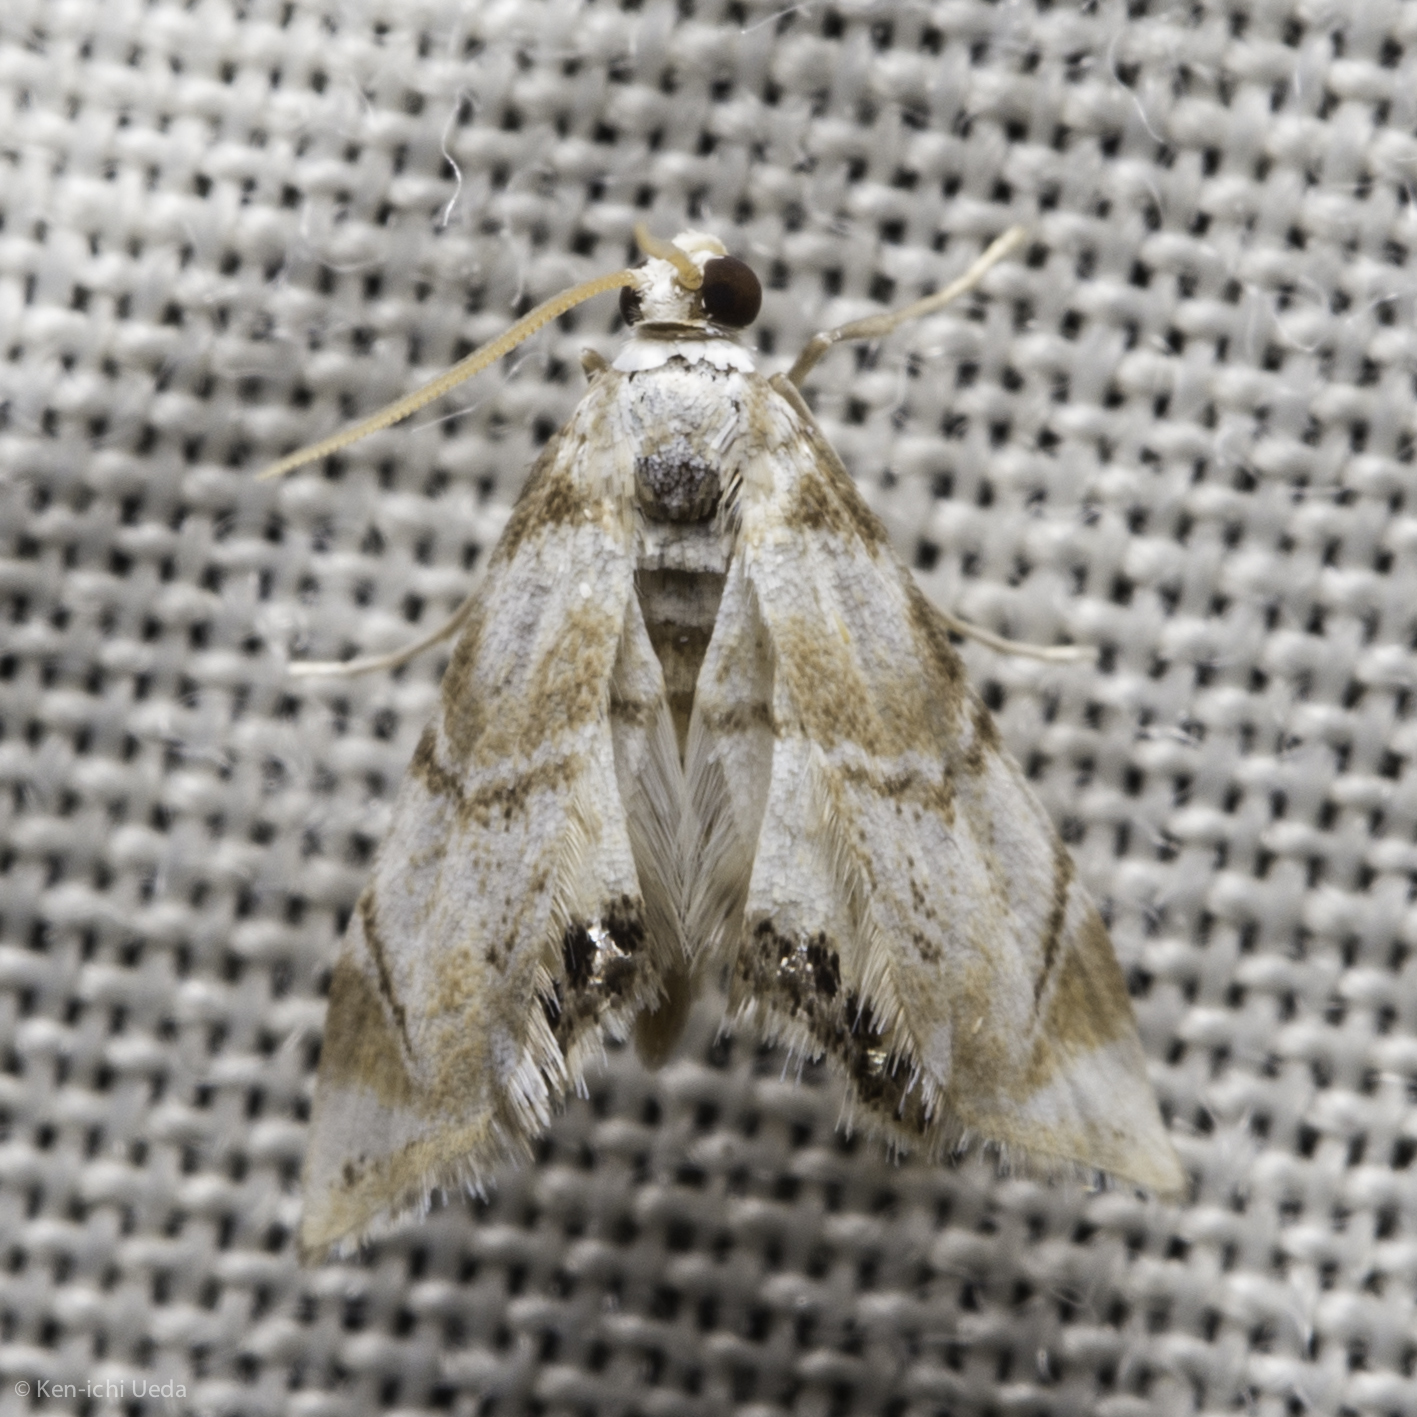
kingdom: Animalia
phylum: Arthropoda
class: Insecta
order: Lepidoptera
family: Crambidae
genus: Eoparargyractis
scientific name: Eoparargyractis plevie
